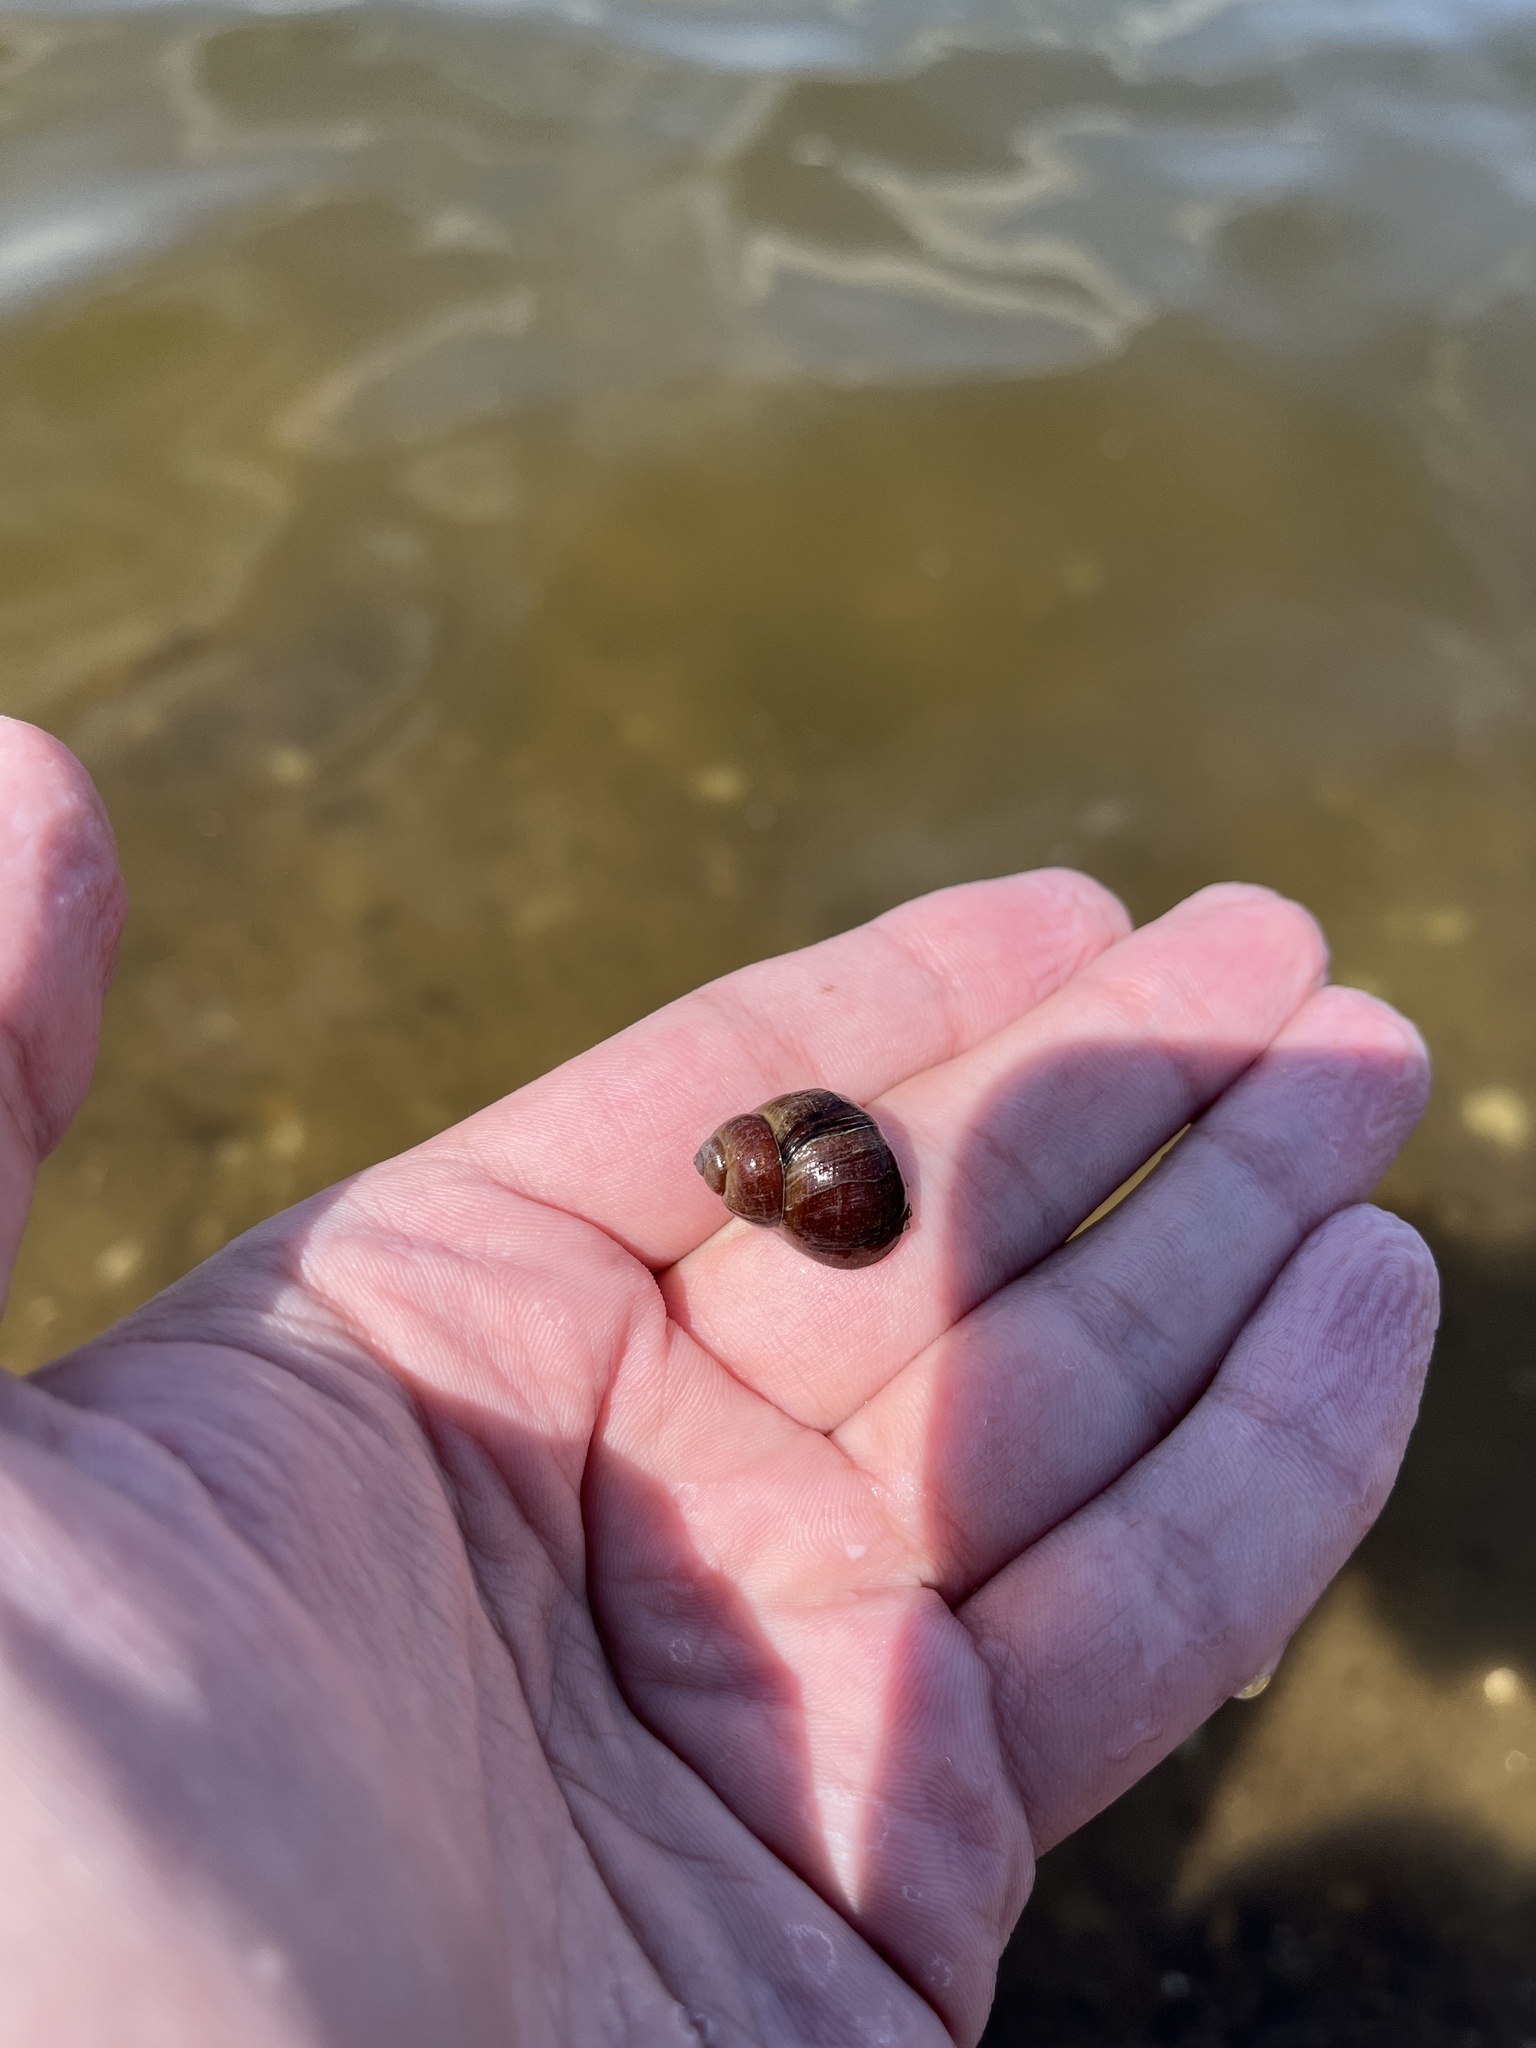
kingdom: Animalia
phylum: Mollusca
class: Gastropoda
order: Architaenioglossa
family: Viviparidae
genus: Viviparus
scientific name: Viviparus viviparus
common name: River snail
